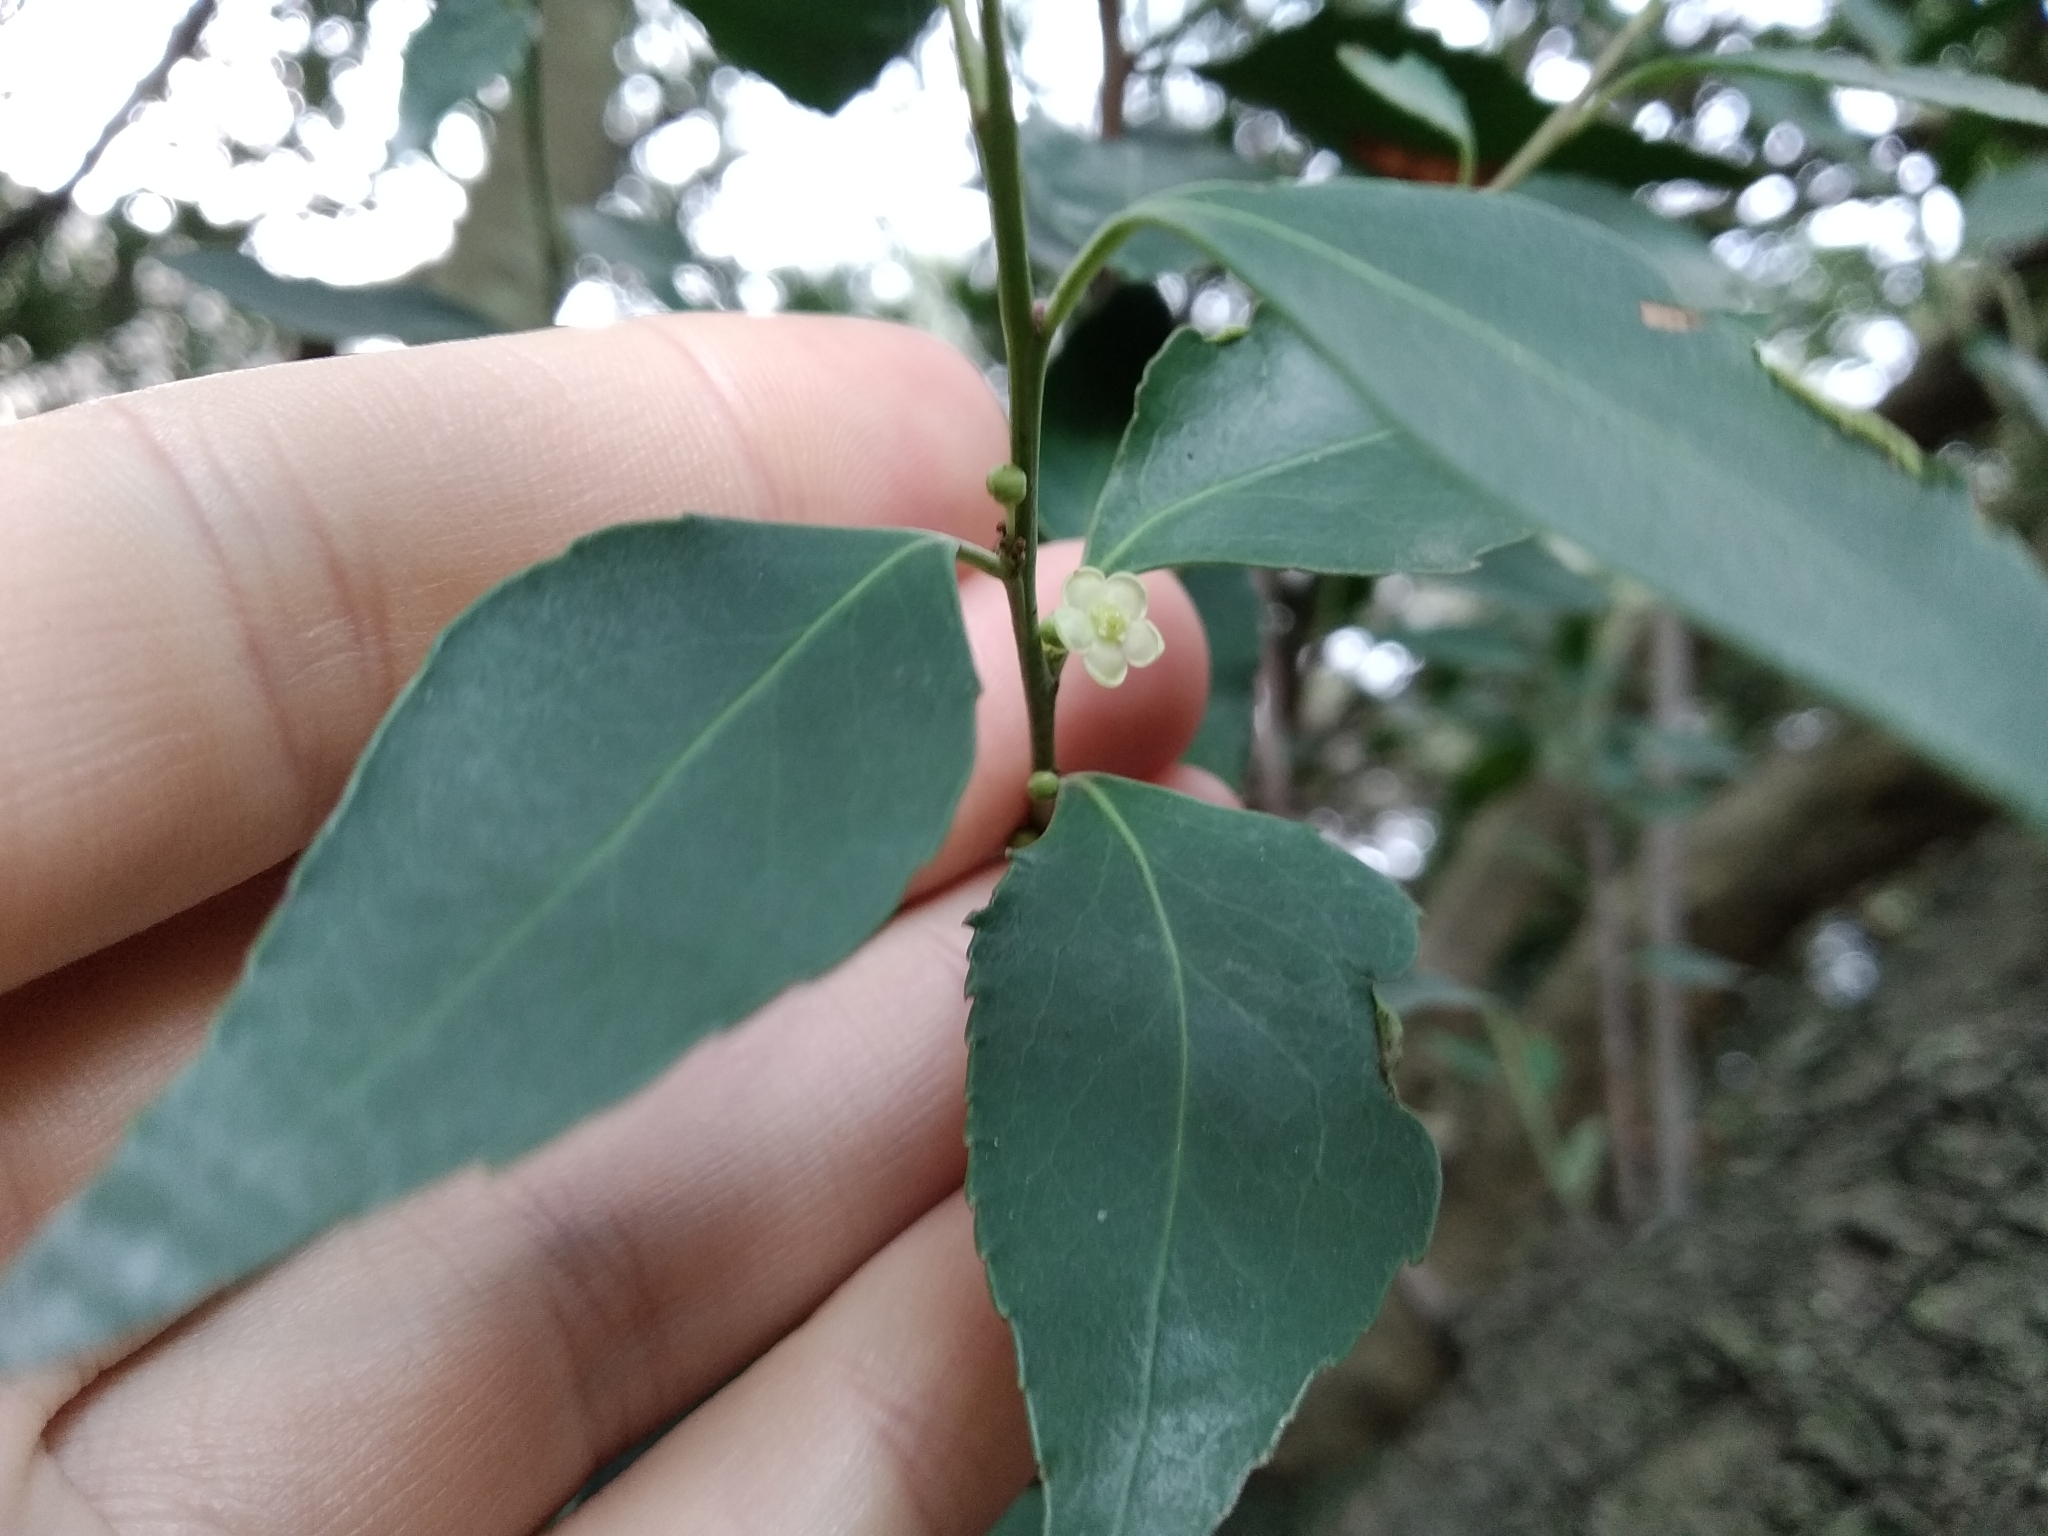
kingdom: Plantae
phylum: Tracheophyta
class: Magnoliopsida
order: Celastrales
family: Celastraceae
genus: Gymnosporia
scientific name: Gymnosporia acuminata
